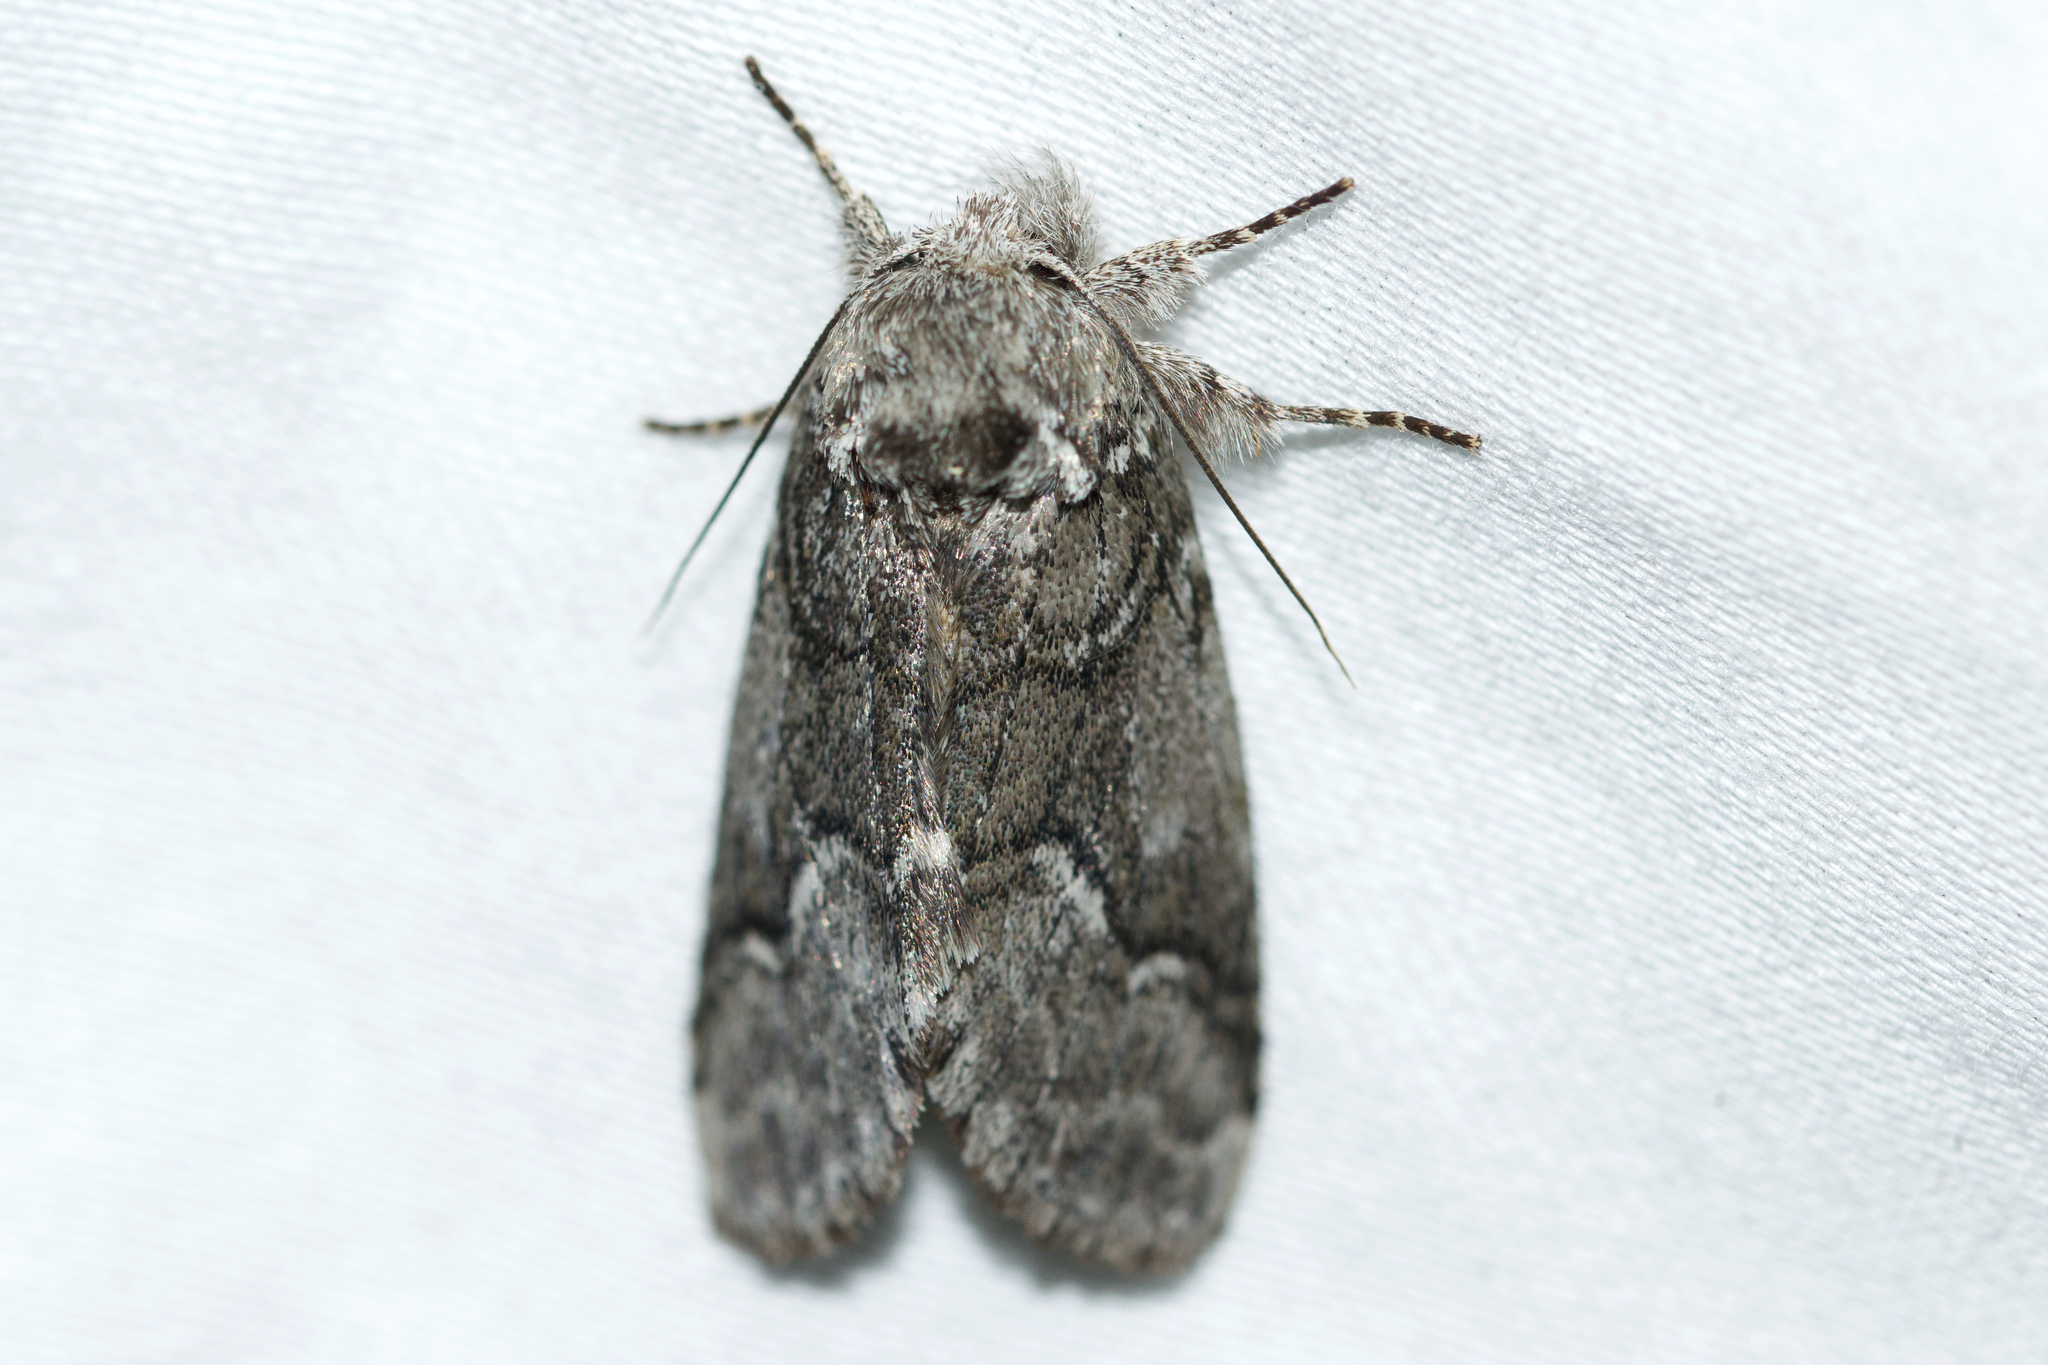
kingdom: Animalia
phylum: Arthropoda
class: Insecta
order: Lepidoptera
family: Notodontidae
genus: Lochmaeus
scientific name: Lochmaeus bilineata
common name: Double-lined prominent
